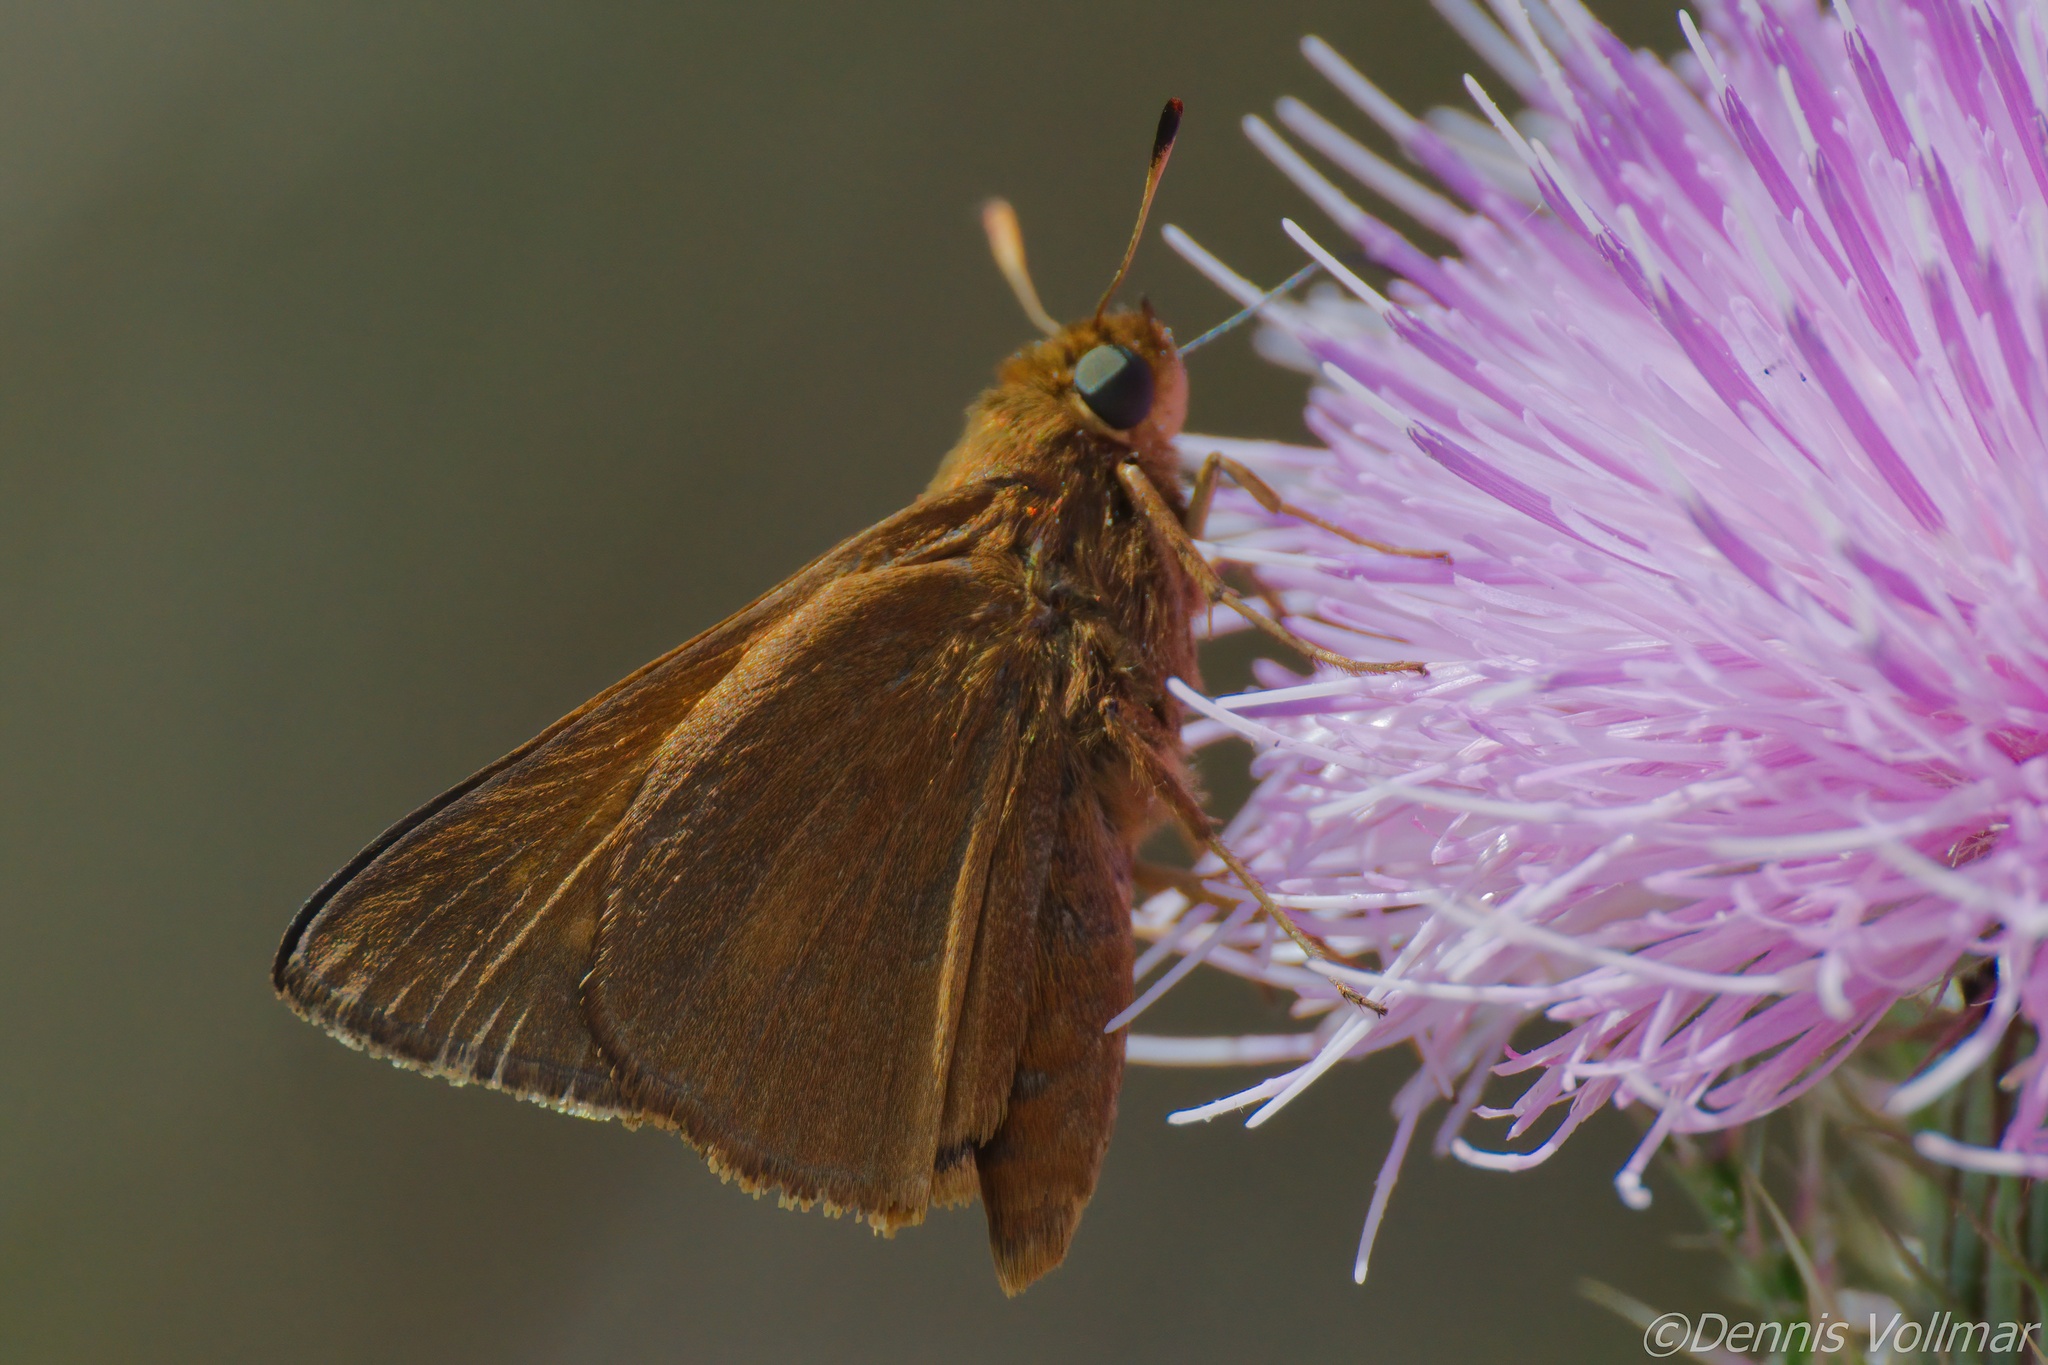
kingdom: Animalia
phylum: Arthropoda
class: Insecta
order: Lepidoptera
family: Hesperiidae
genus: Euphyes
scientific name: Euphyes pilatka
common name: Palatka skipper
